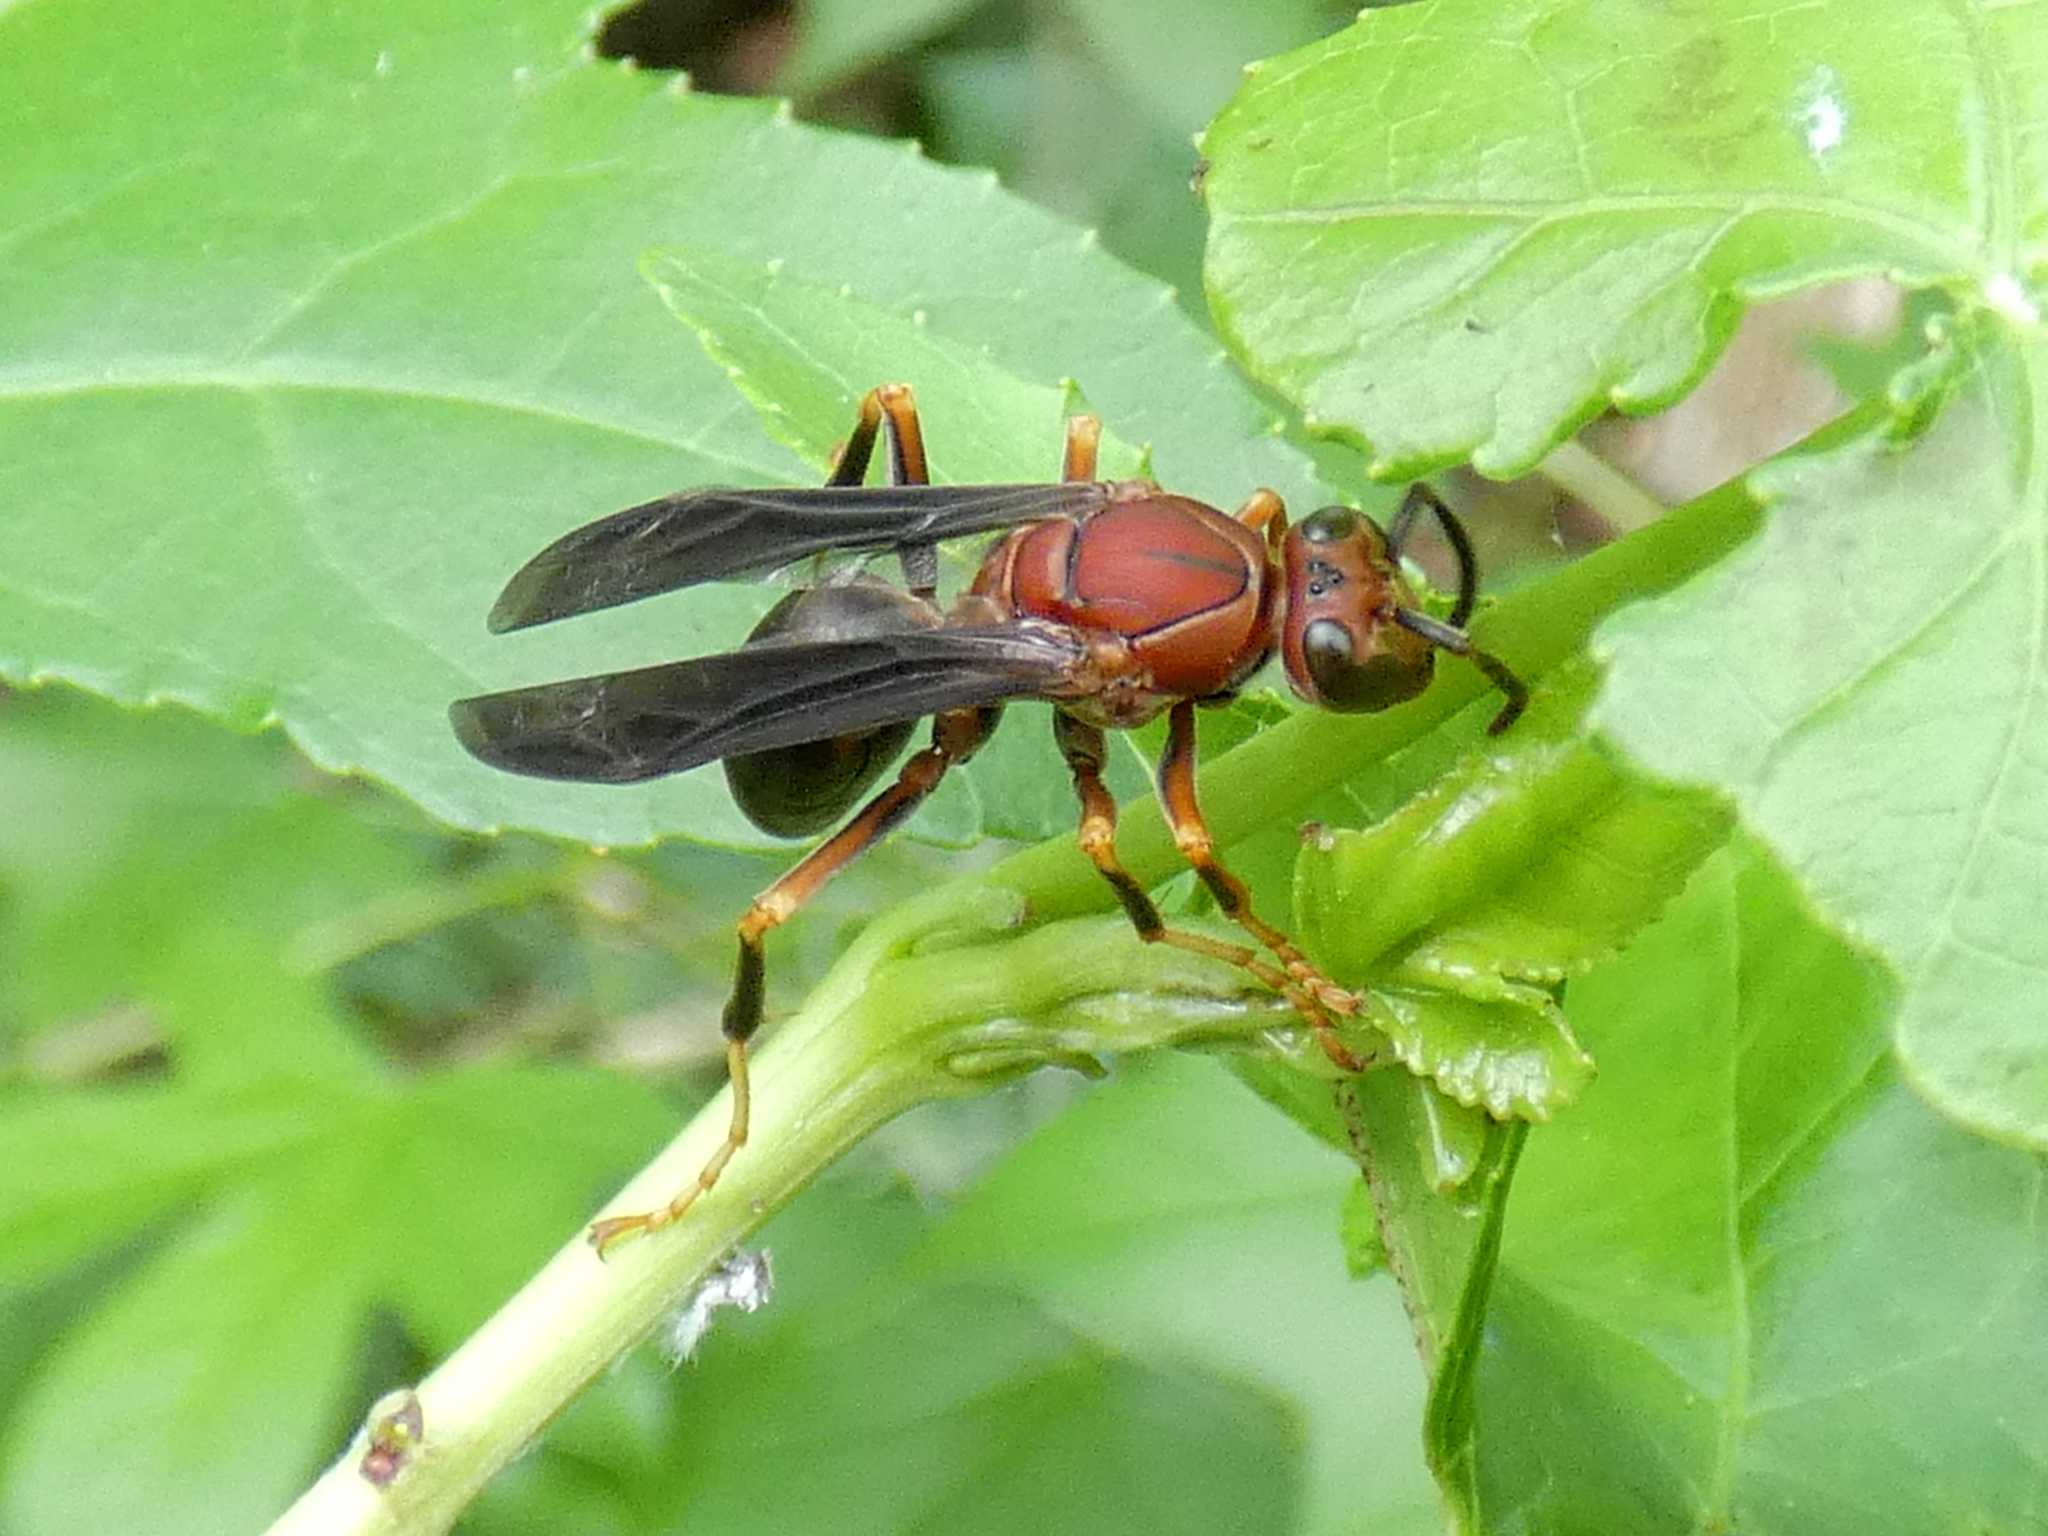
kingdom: Animalia
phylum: Arthropoda
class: Insecta
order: Hymenoptera
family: Eumenidae
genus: Polistes
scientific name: Polistes metricus
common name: Metric paper wasp
